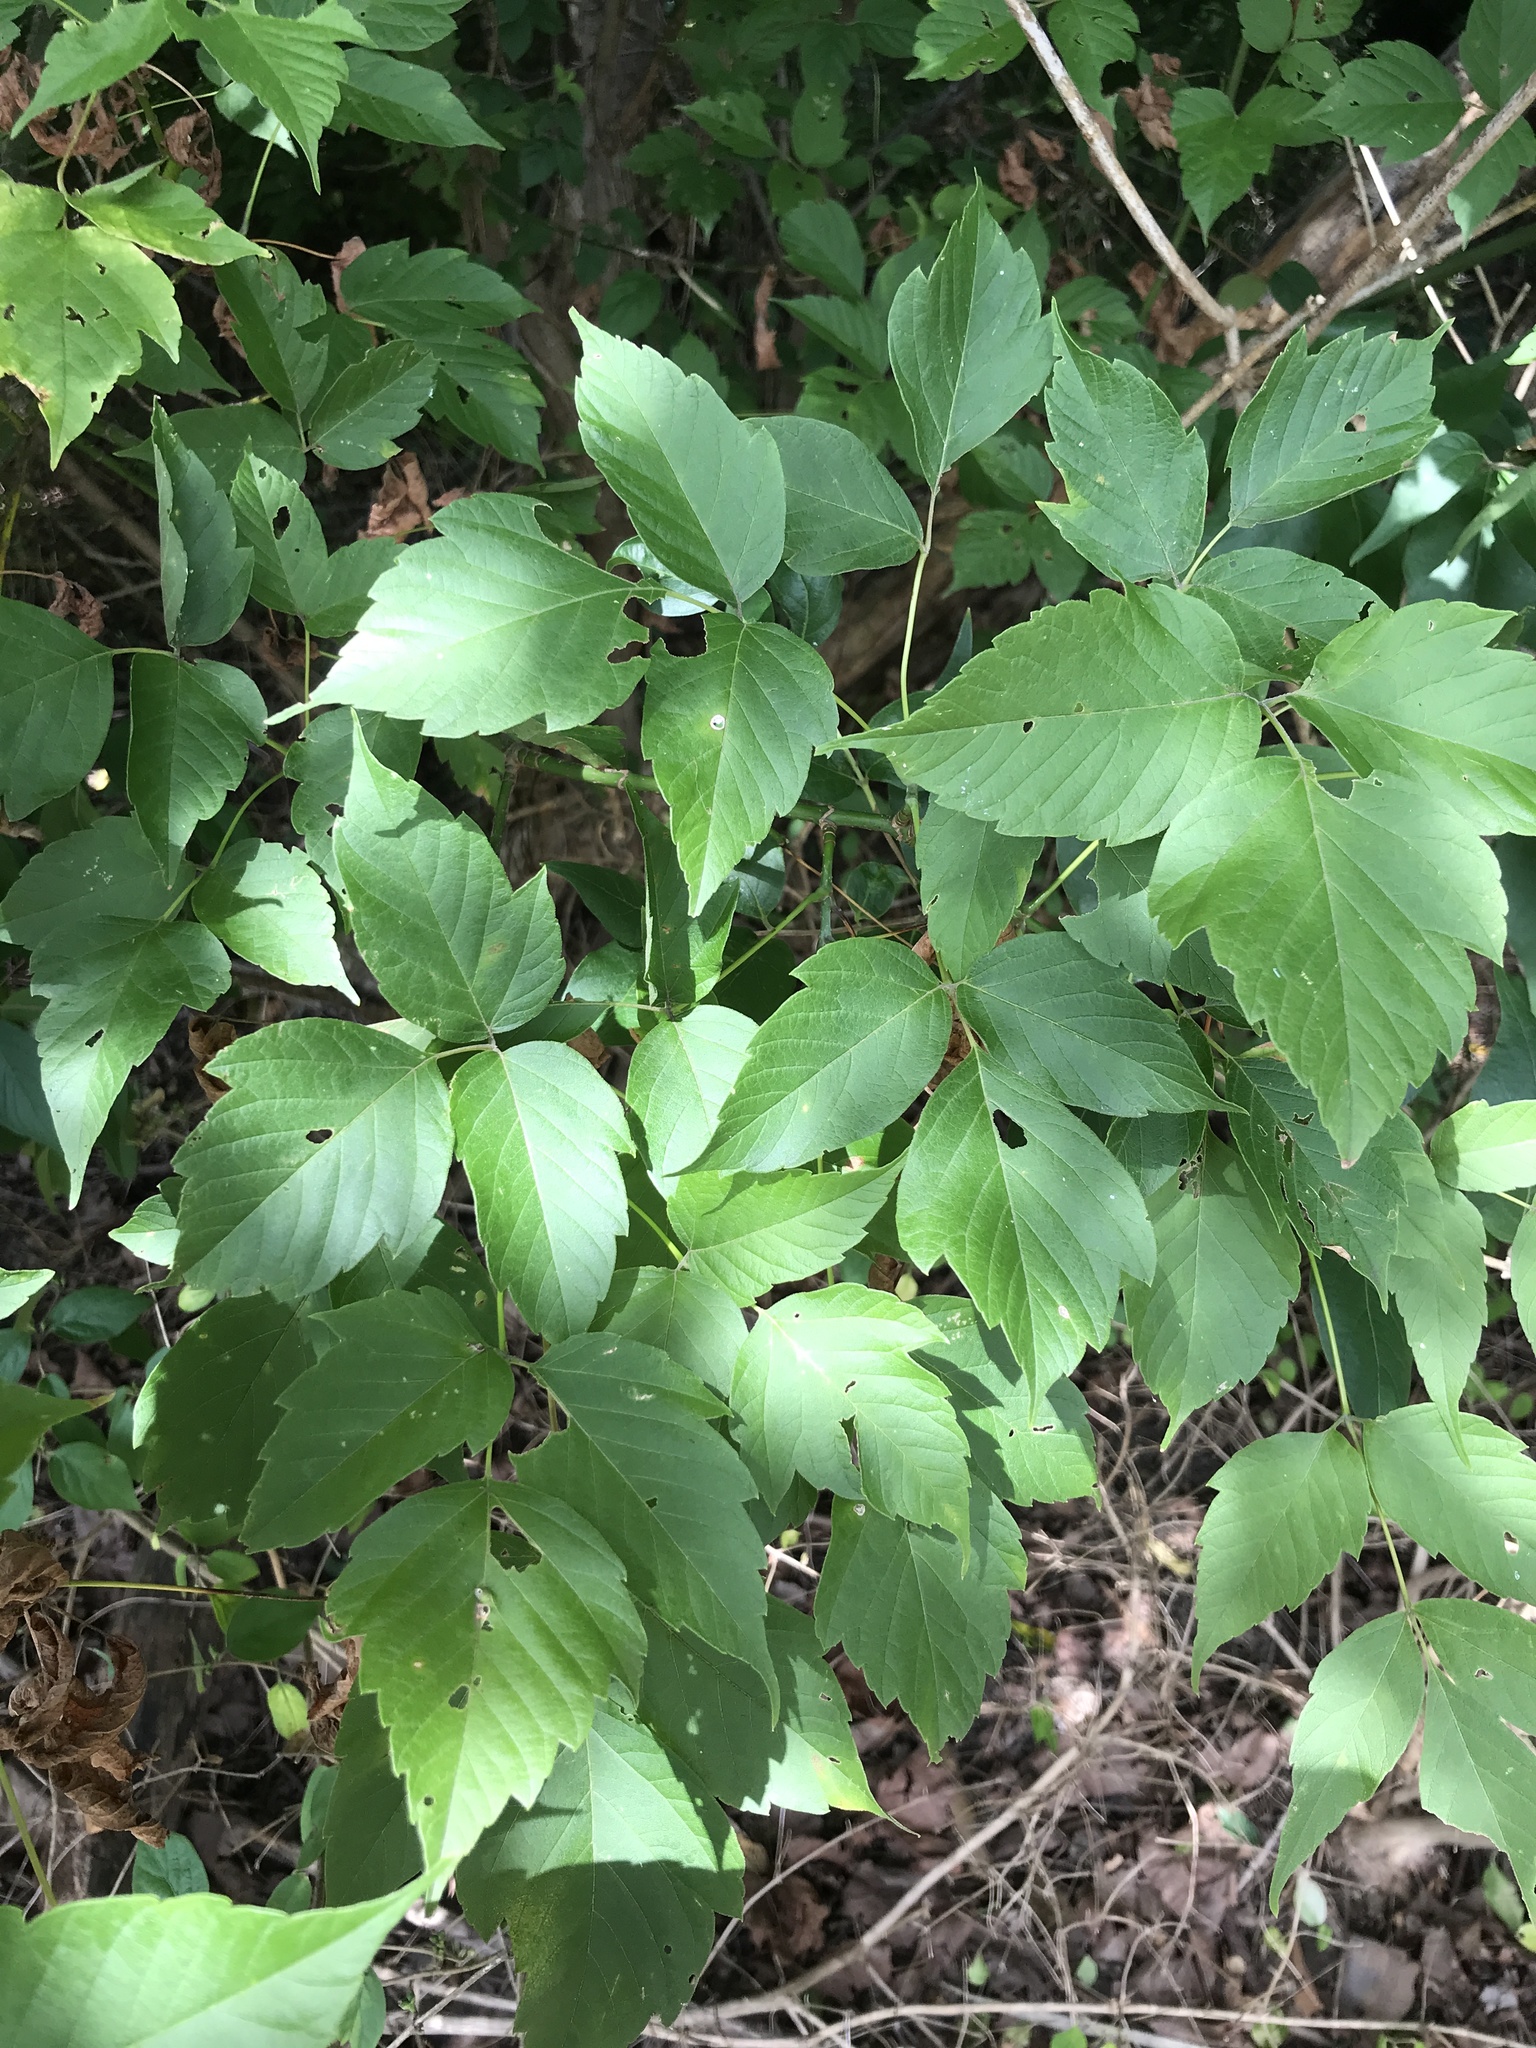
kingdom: Plantae
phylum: Tracheophyta
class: Magnoliopsida
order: Sapindales
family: Sapindaceae
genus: Acer
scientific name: Acer negundo
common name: Ashleaf maple
